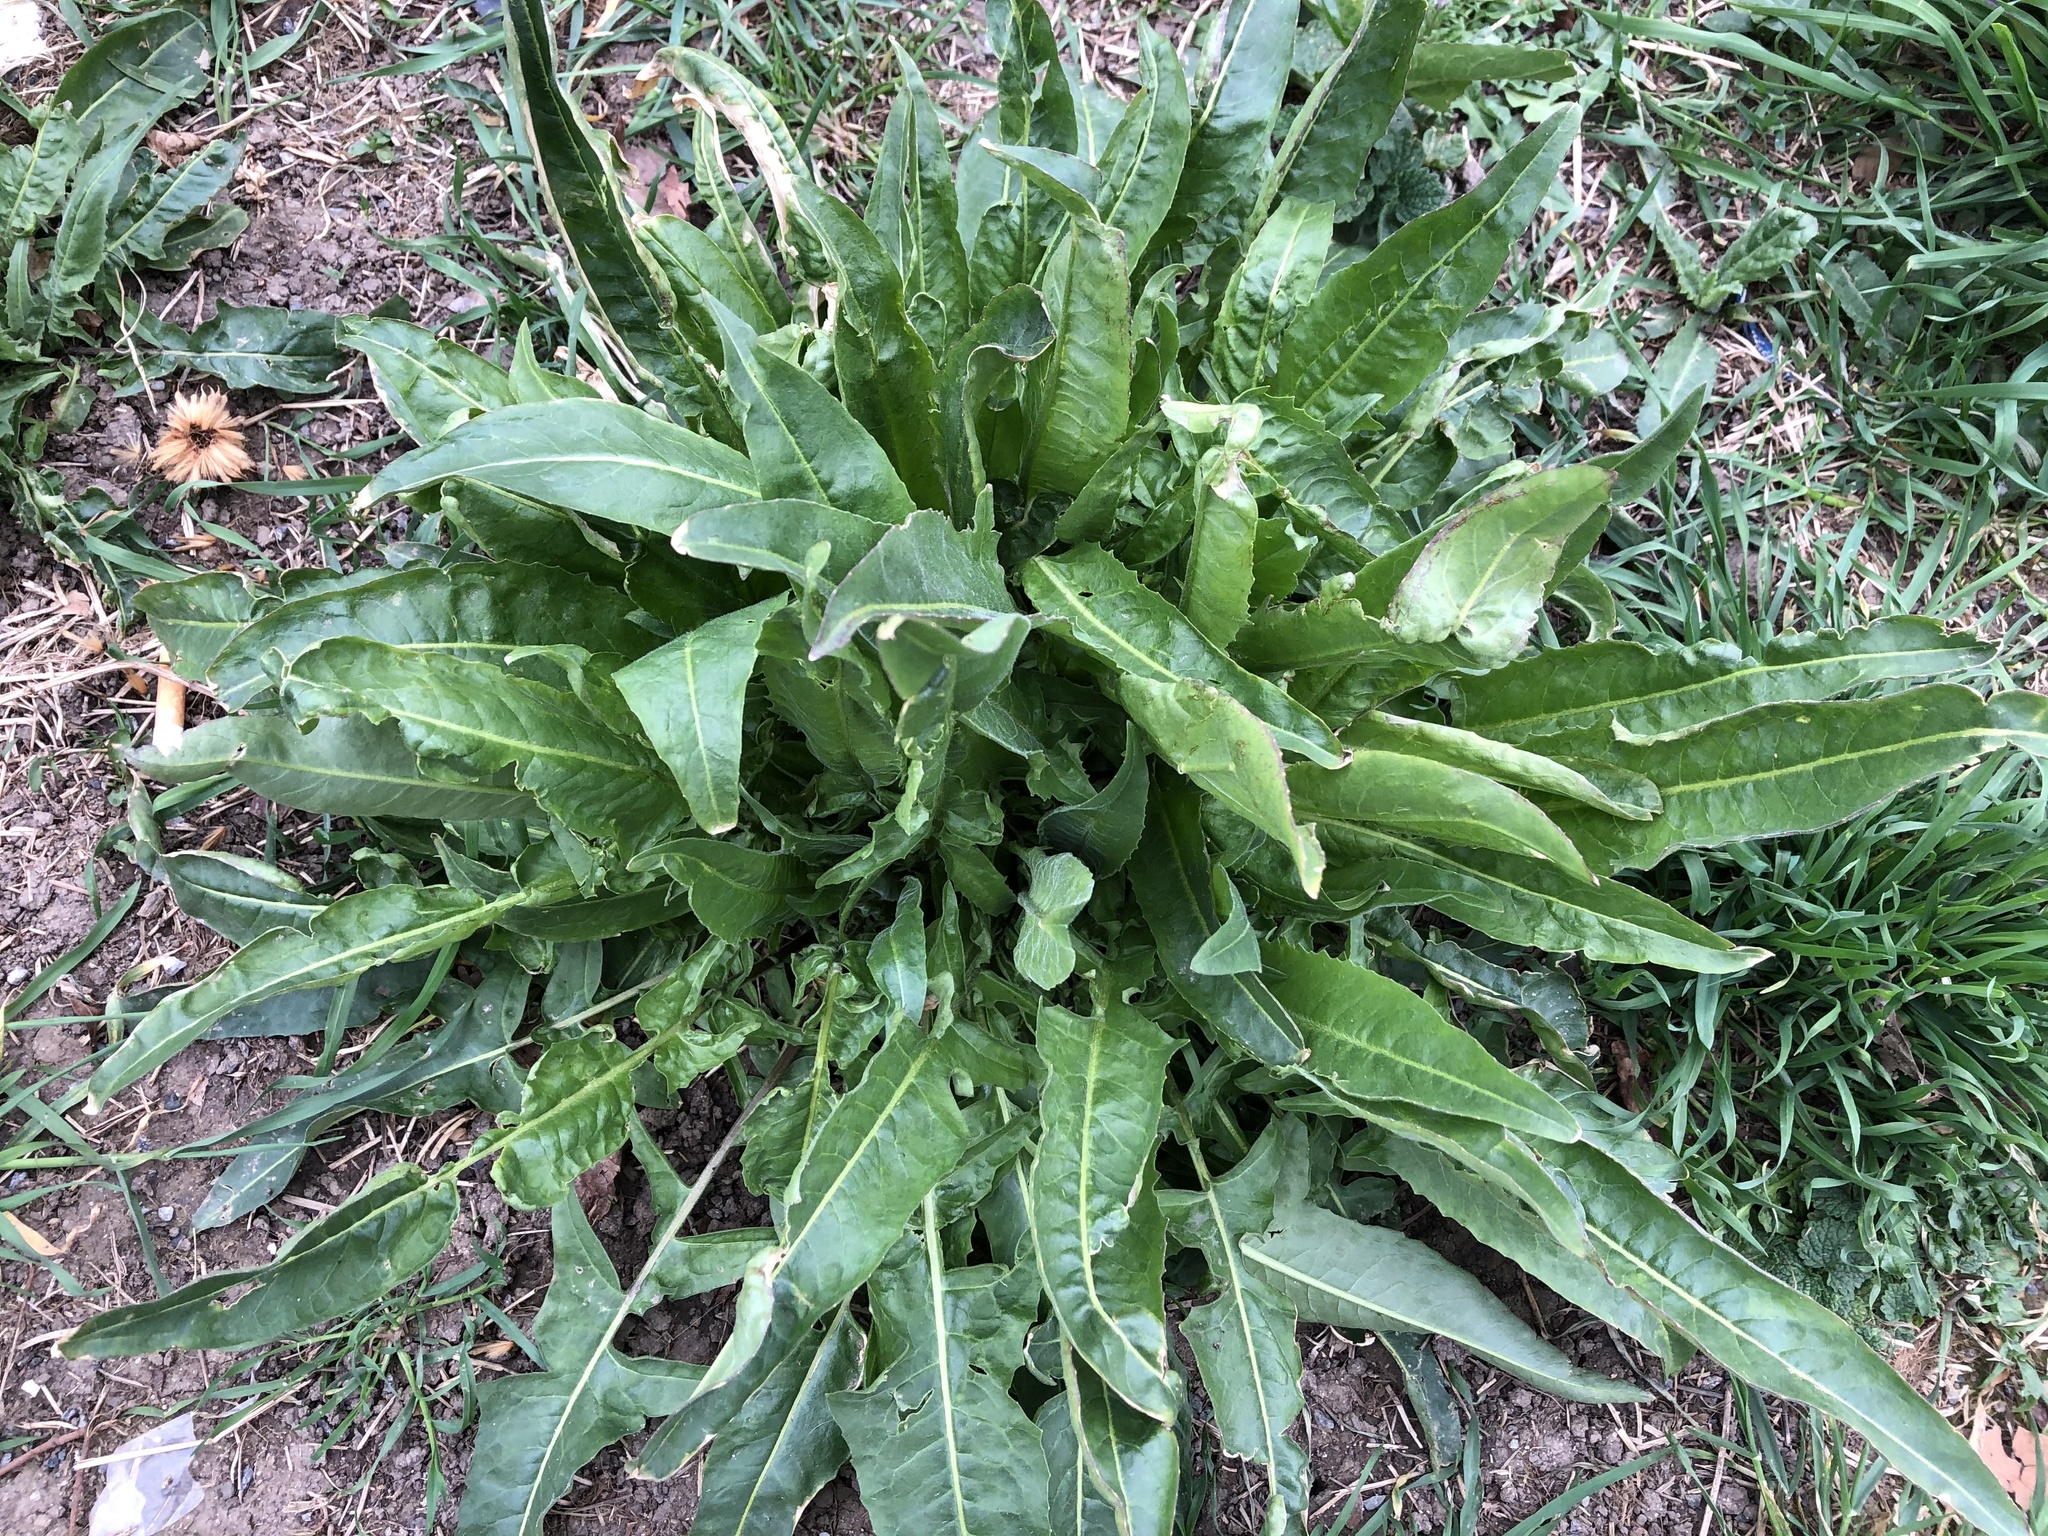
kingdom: Plantae
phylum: Tracheophyta
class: Magnoliopsida
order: Brassicales
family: Brassicaceae
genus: Bunias
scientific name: Bunias orientalis
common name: Warty-cabbage
